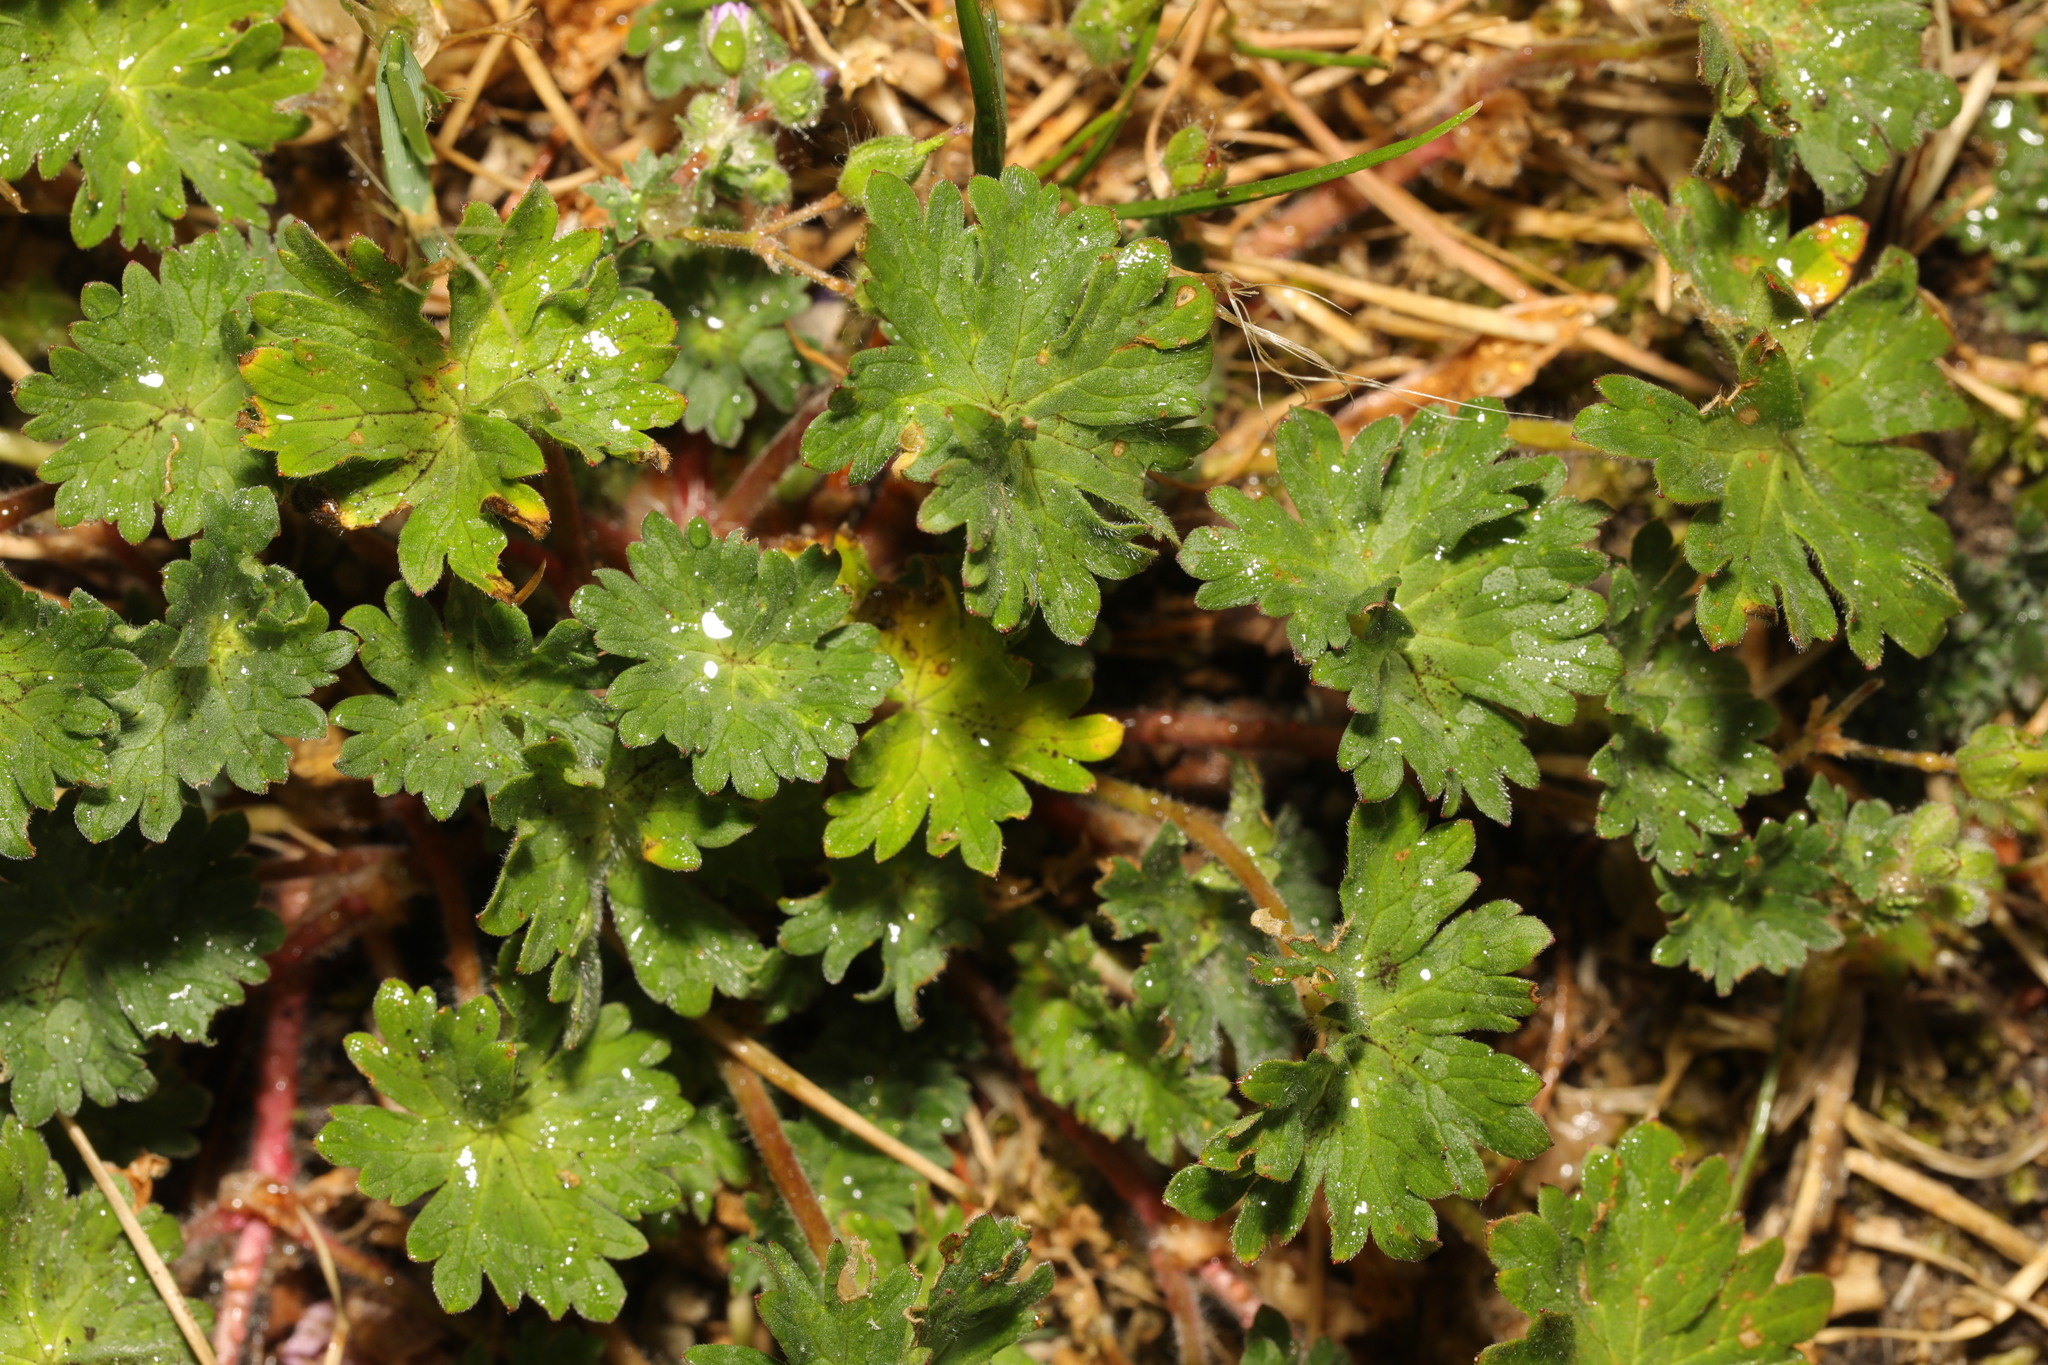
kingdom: Plantae
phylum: Tracheophyta
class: Magnoliopsida
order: Geraniales
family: Geraniaceae
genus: Geranium
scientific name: Geranium molle
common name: Dove's-foot crane's-bill
